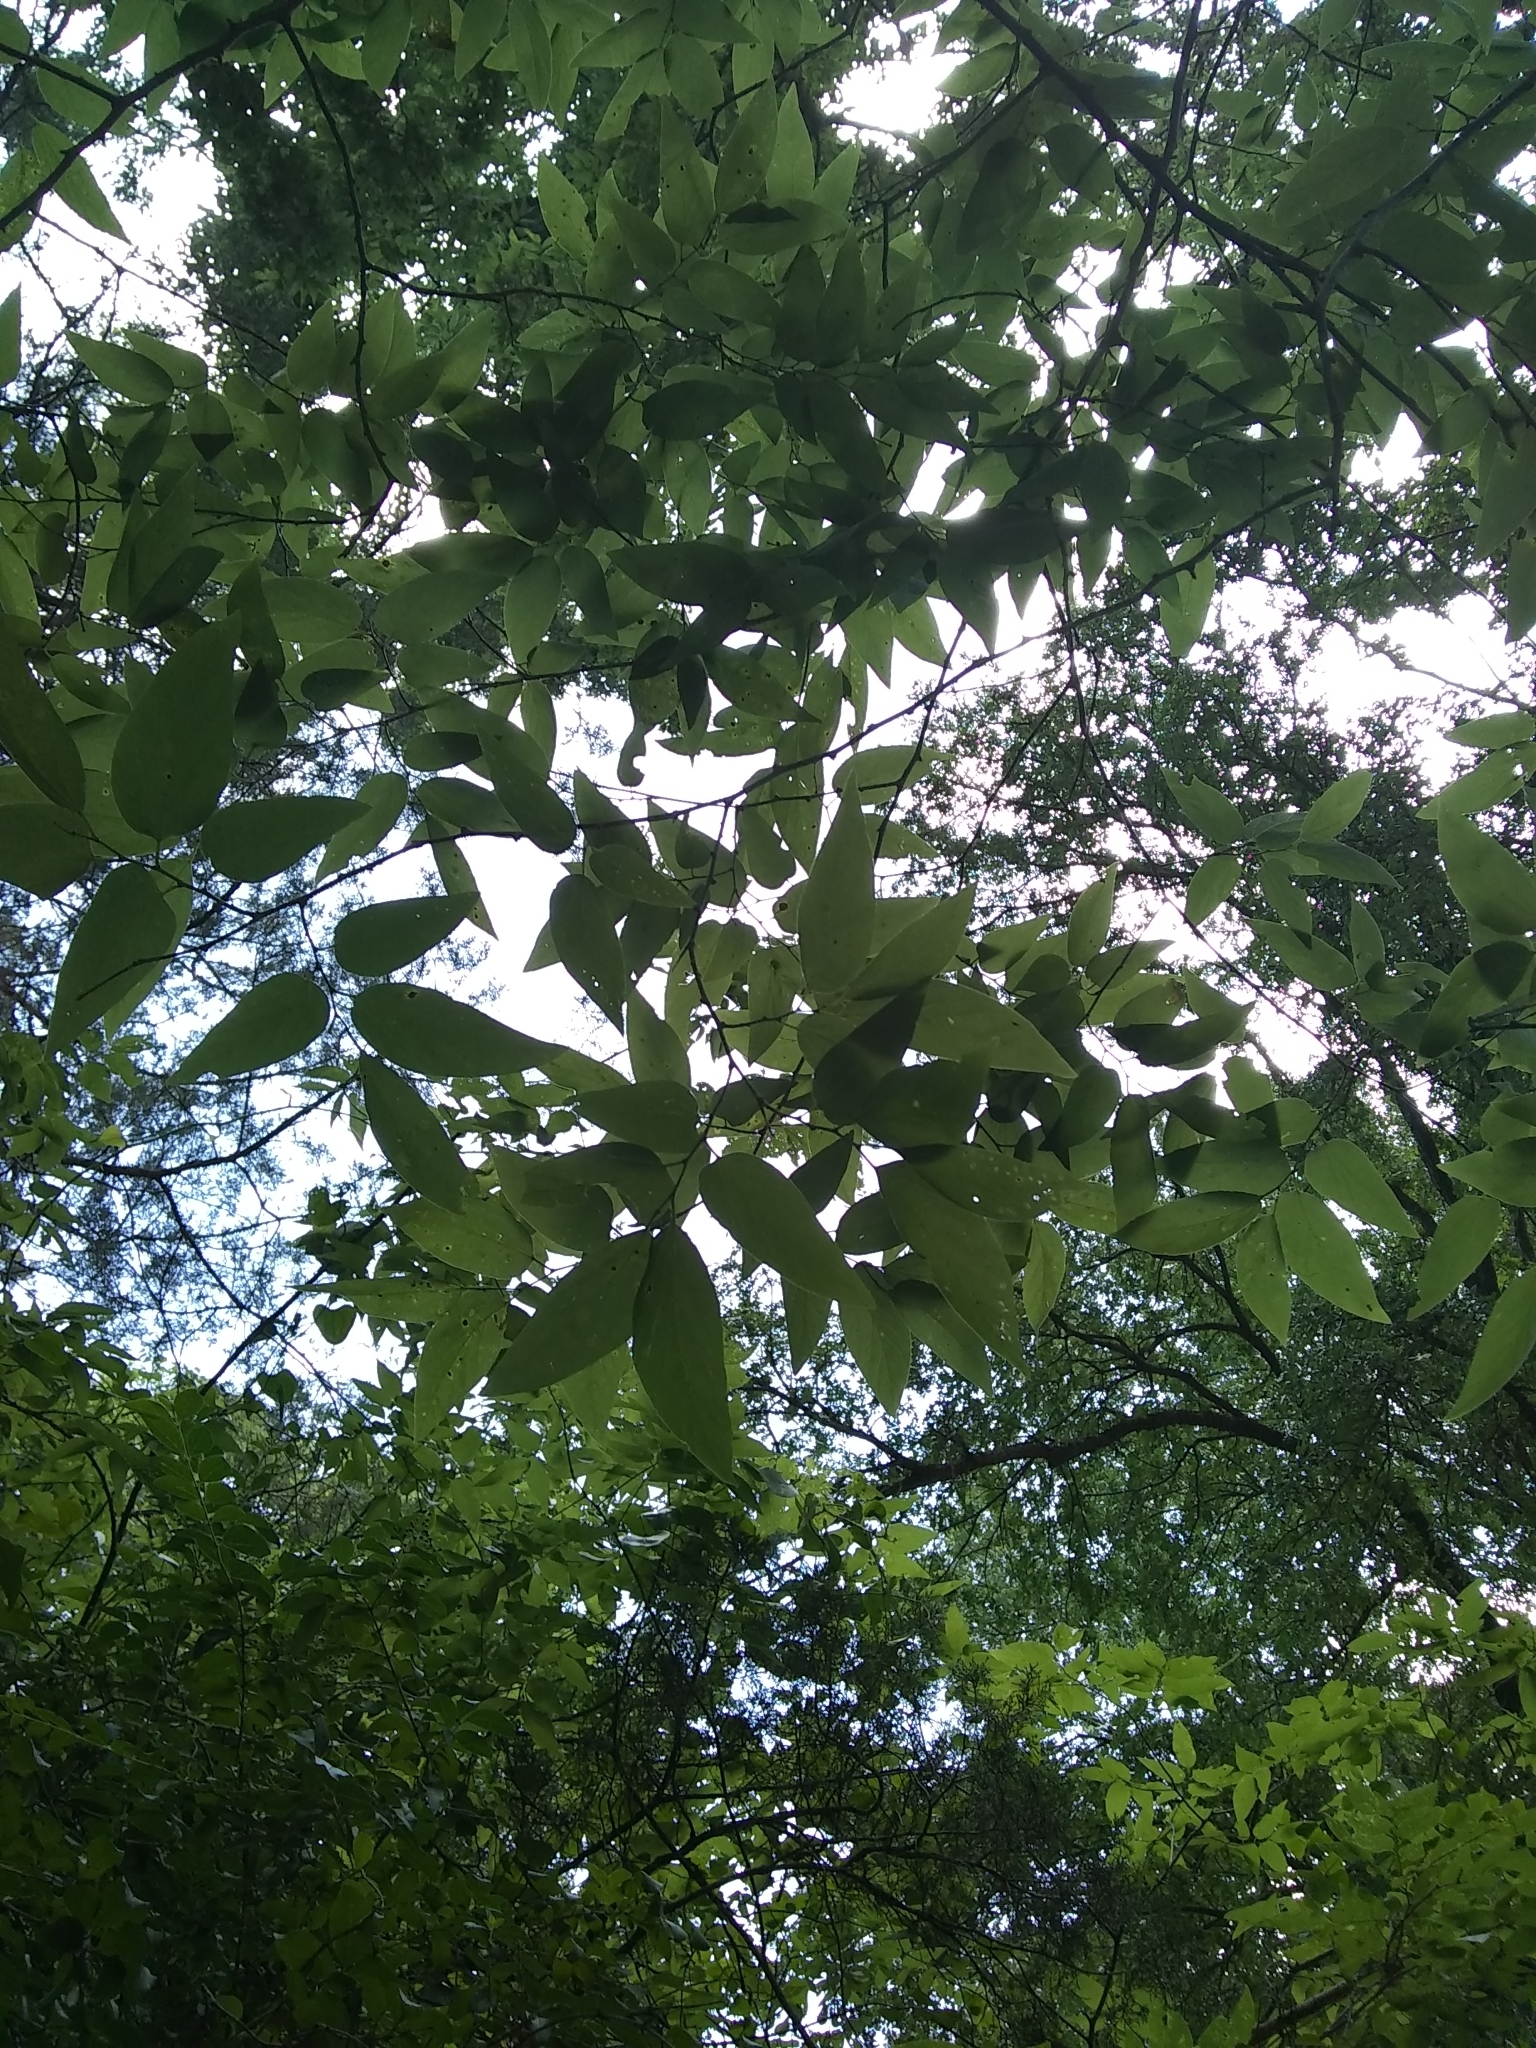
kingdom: Plantae
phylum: Tracheophyta
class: Magnoliopsida
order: Rosales
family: Cannabaceae
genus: Celtis
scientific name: Celtis laevigata
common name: Sugarberry
